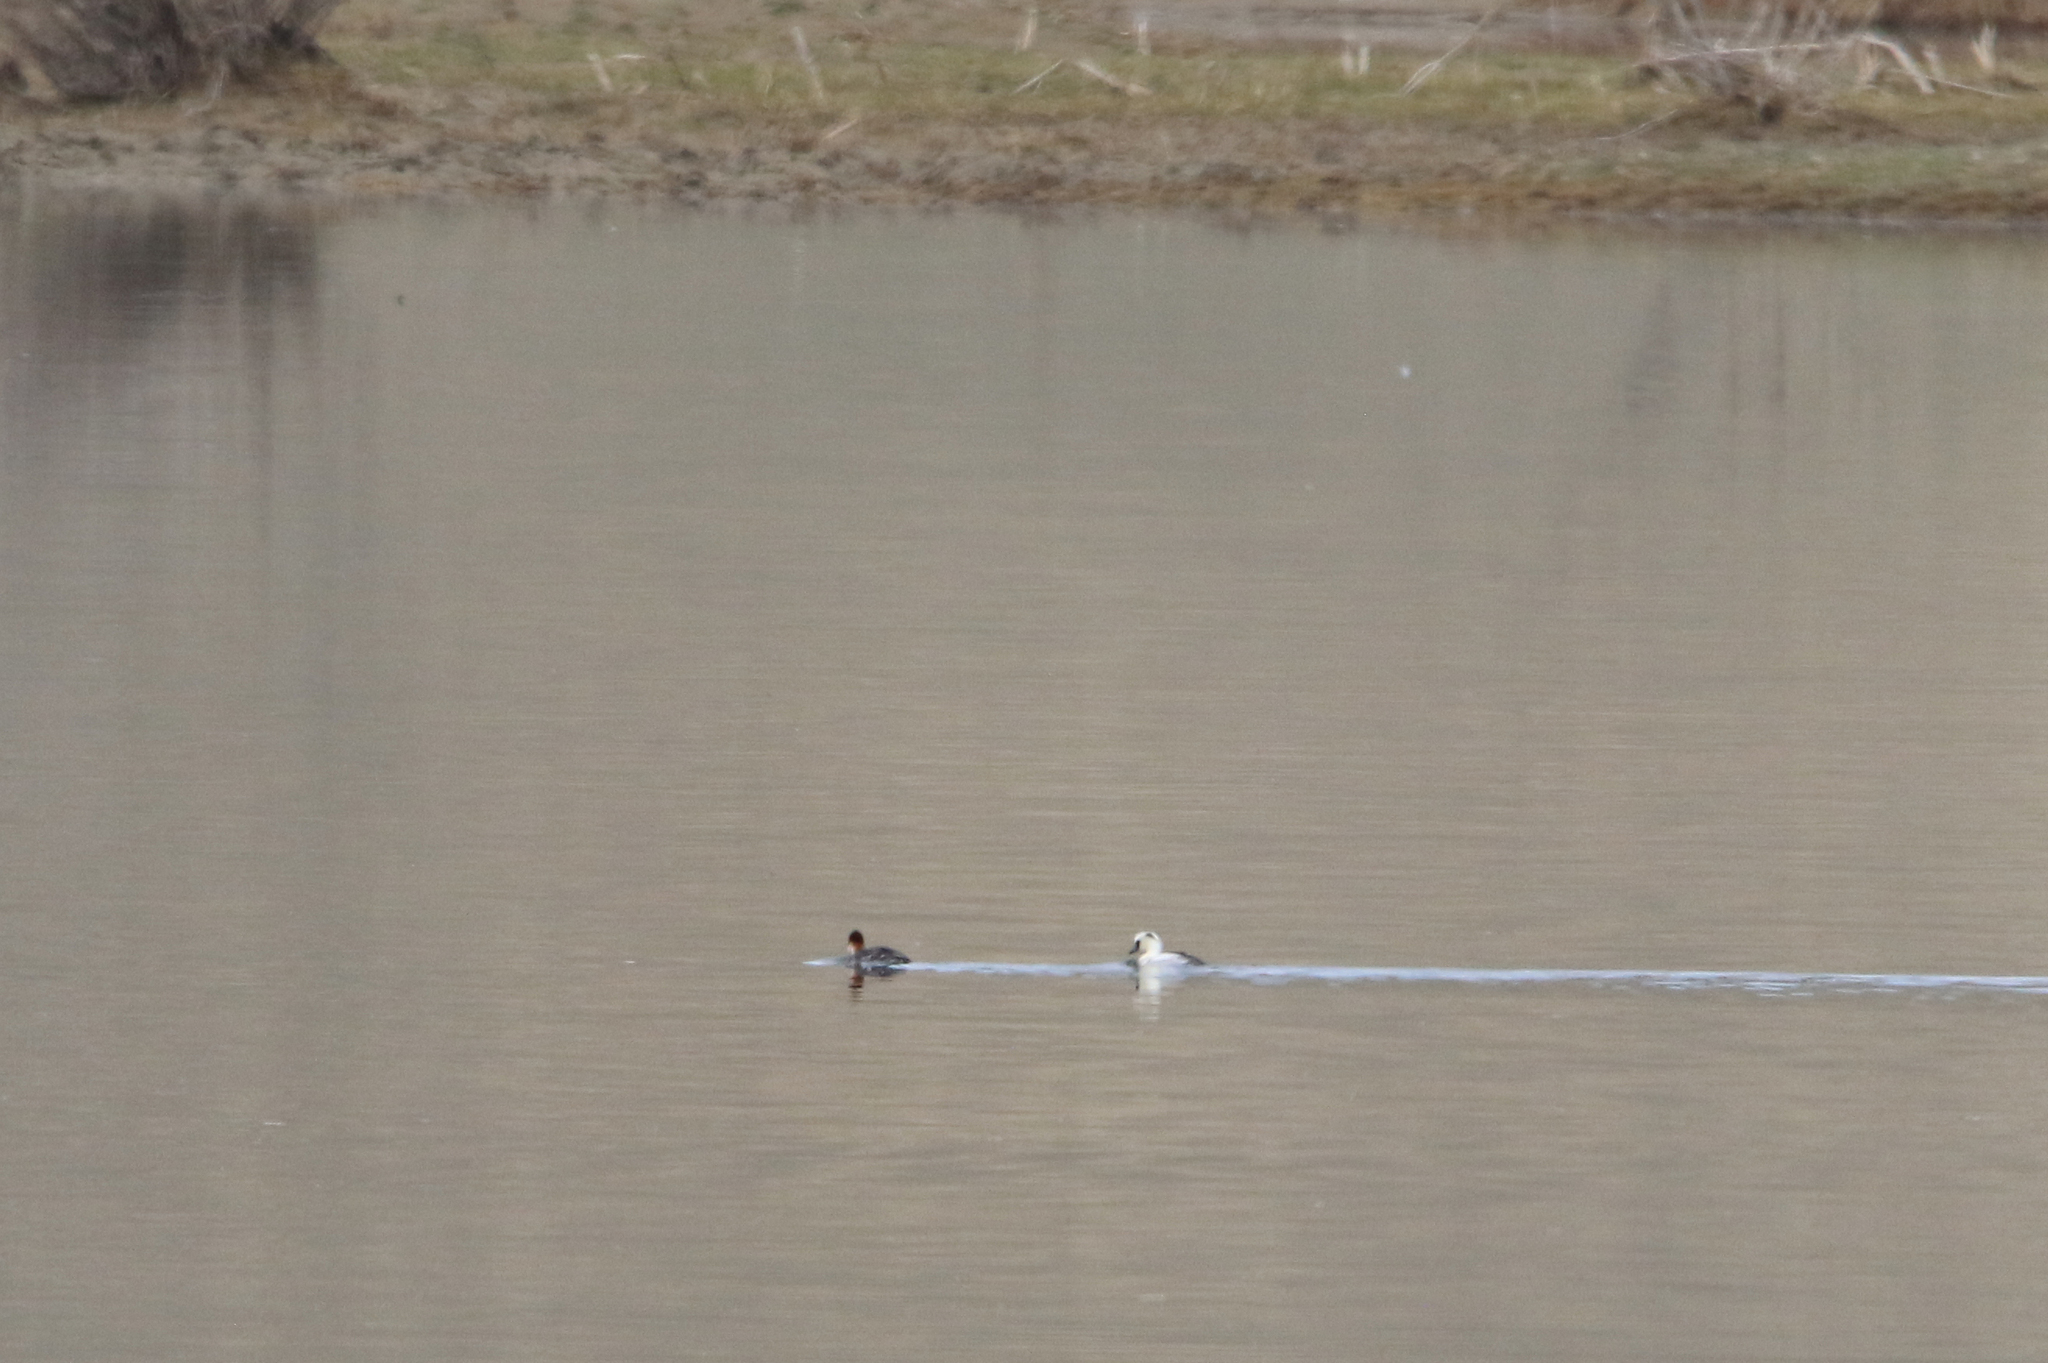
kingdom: Animalia
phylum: Chordata
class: Aves
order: Anseriformes
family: Anatidae
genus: Mergellus
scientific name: Mergellus albellus
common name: Smew
